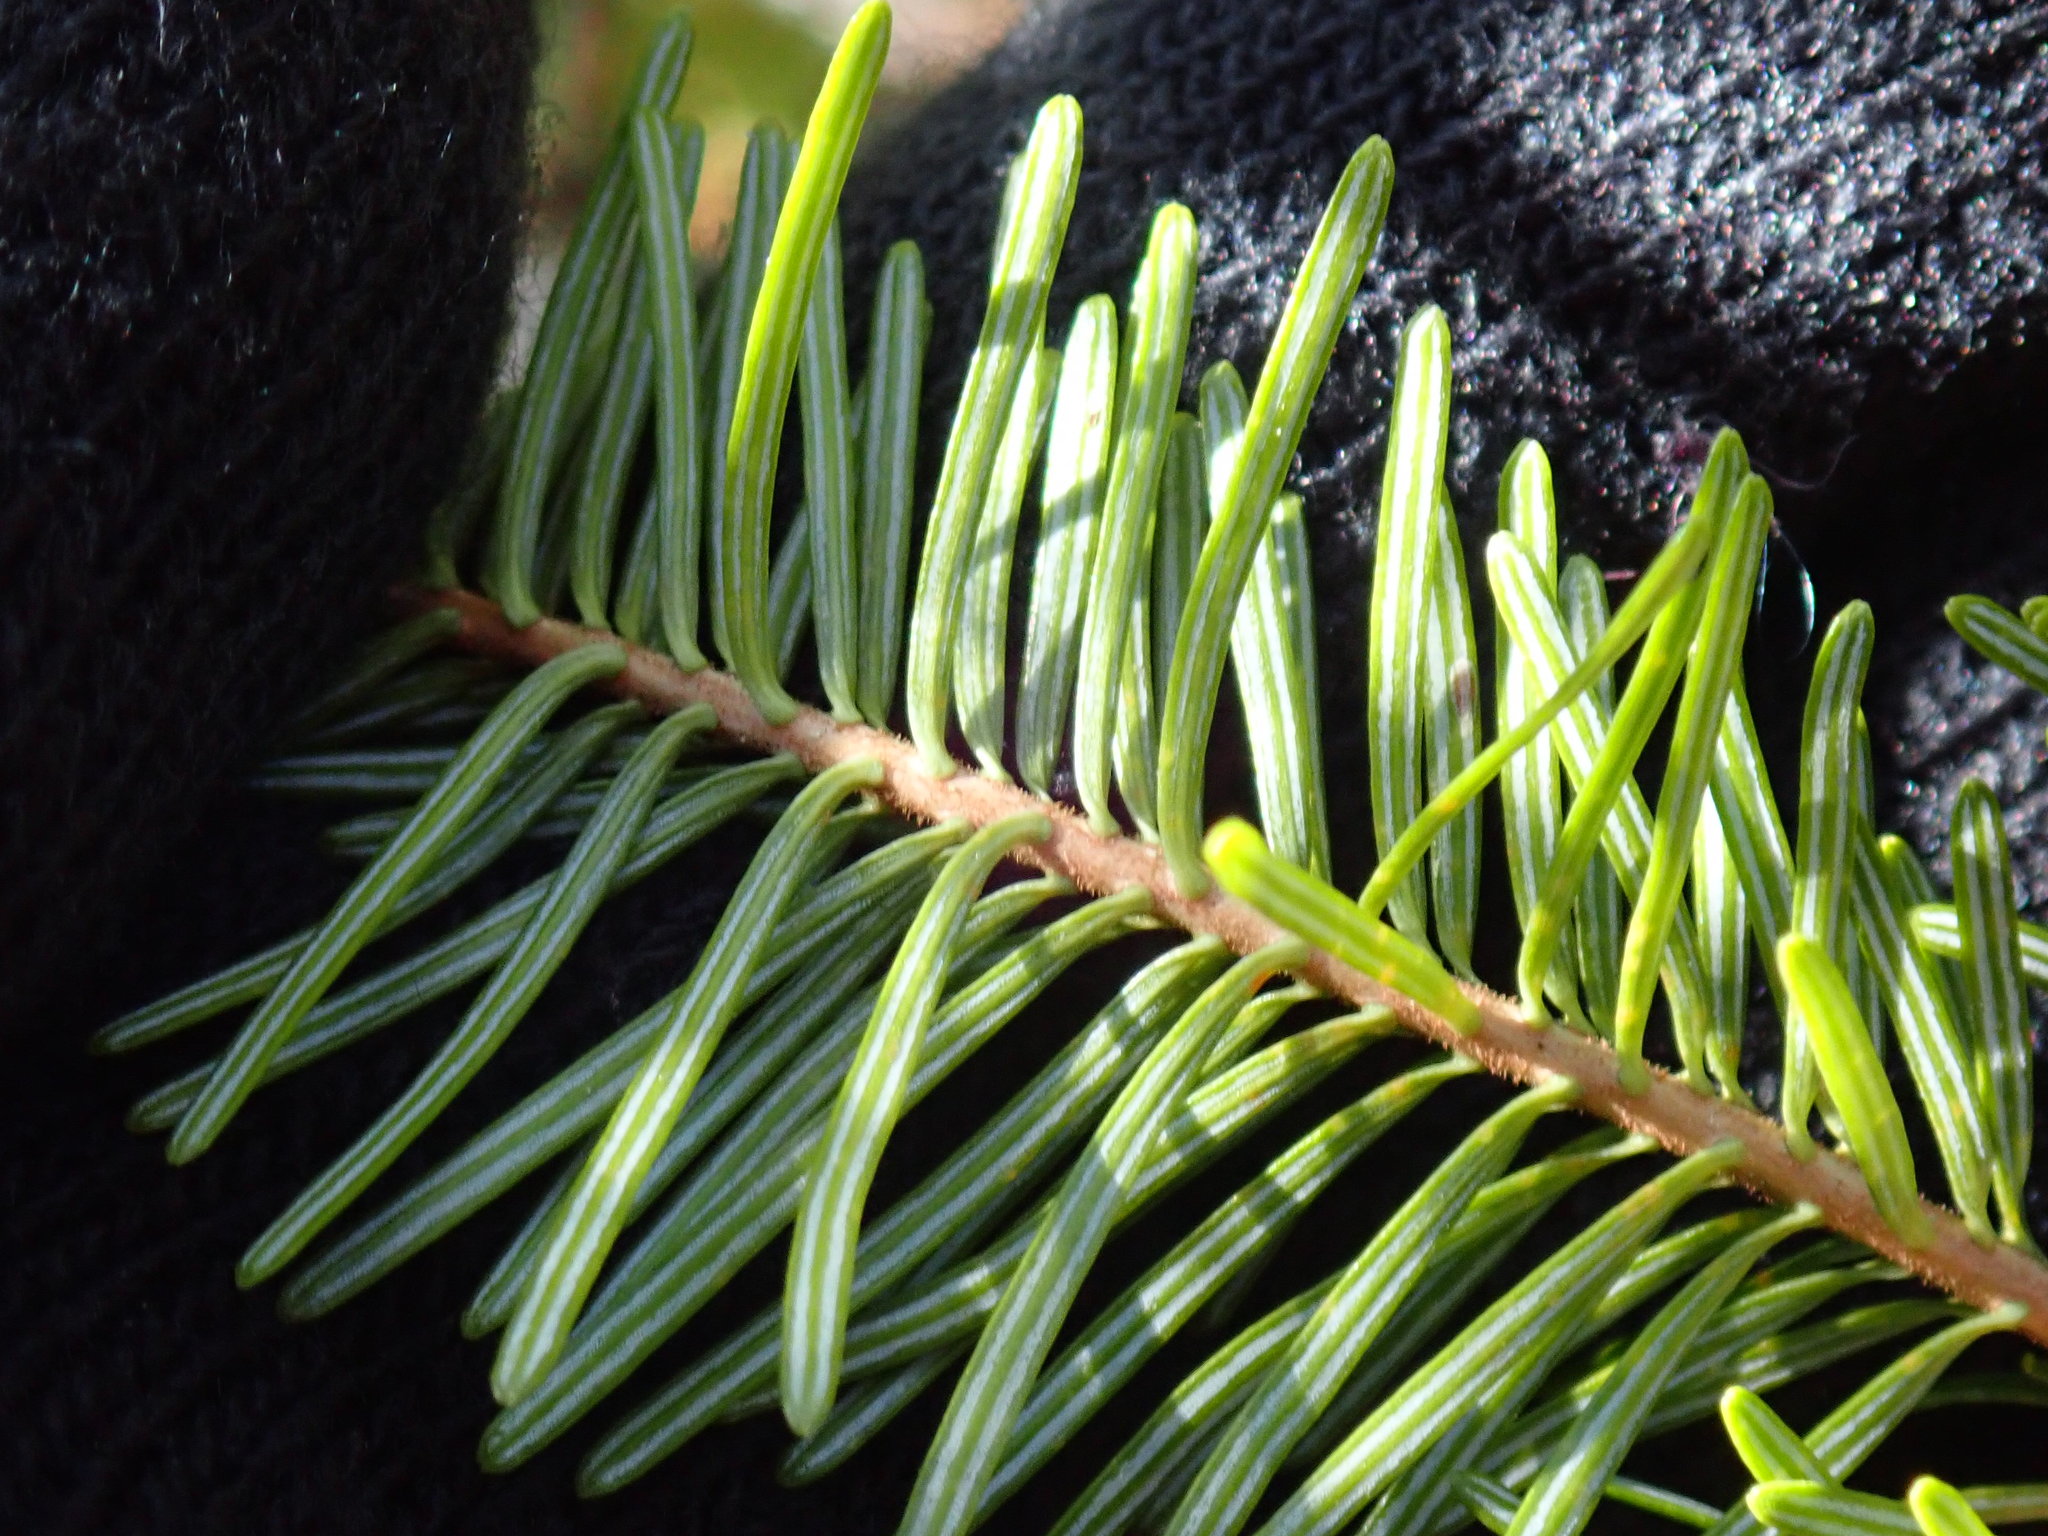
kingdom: Plantae
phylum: Tracheophyta
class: Pinopsida
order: Pinales
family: Pinaceae
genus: Abies
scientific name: Abies balsamea
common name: Balsam fir
